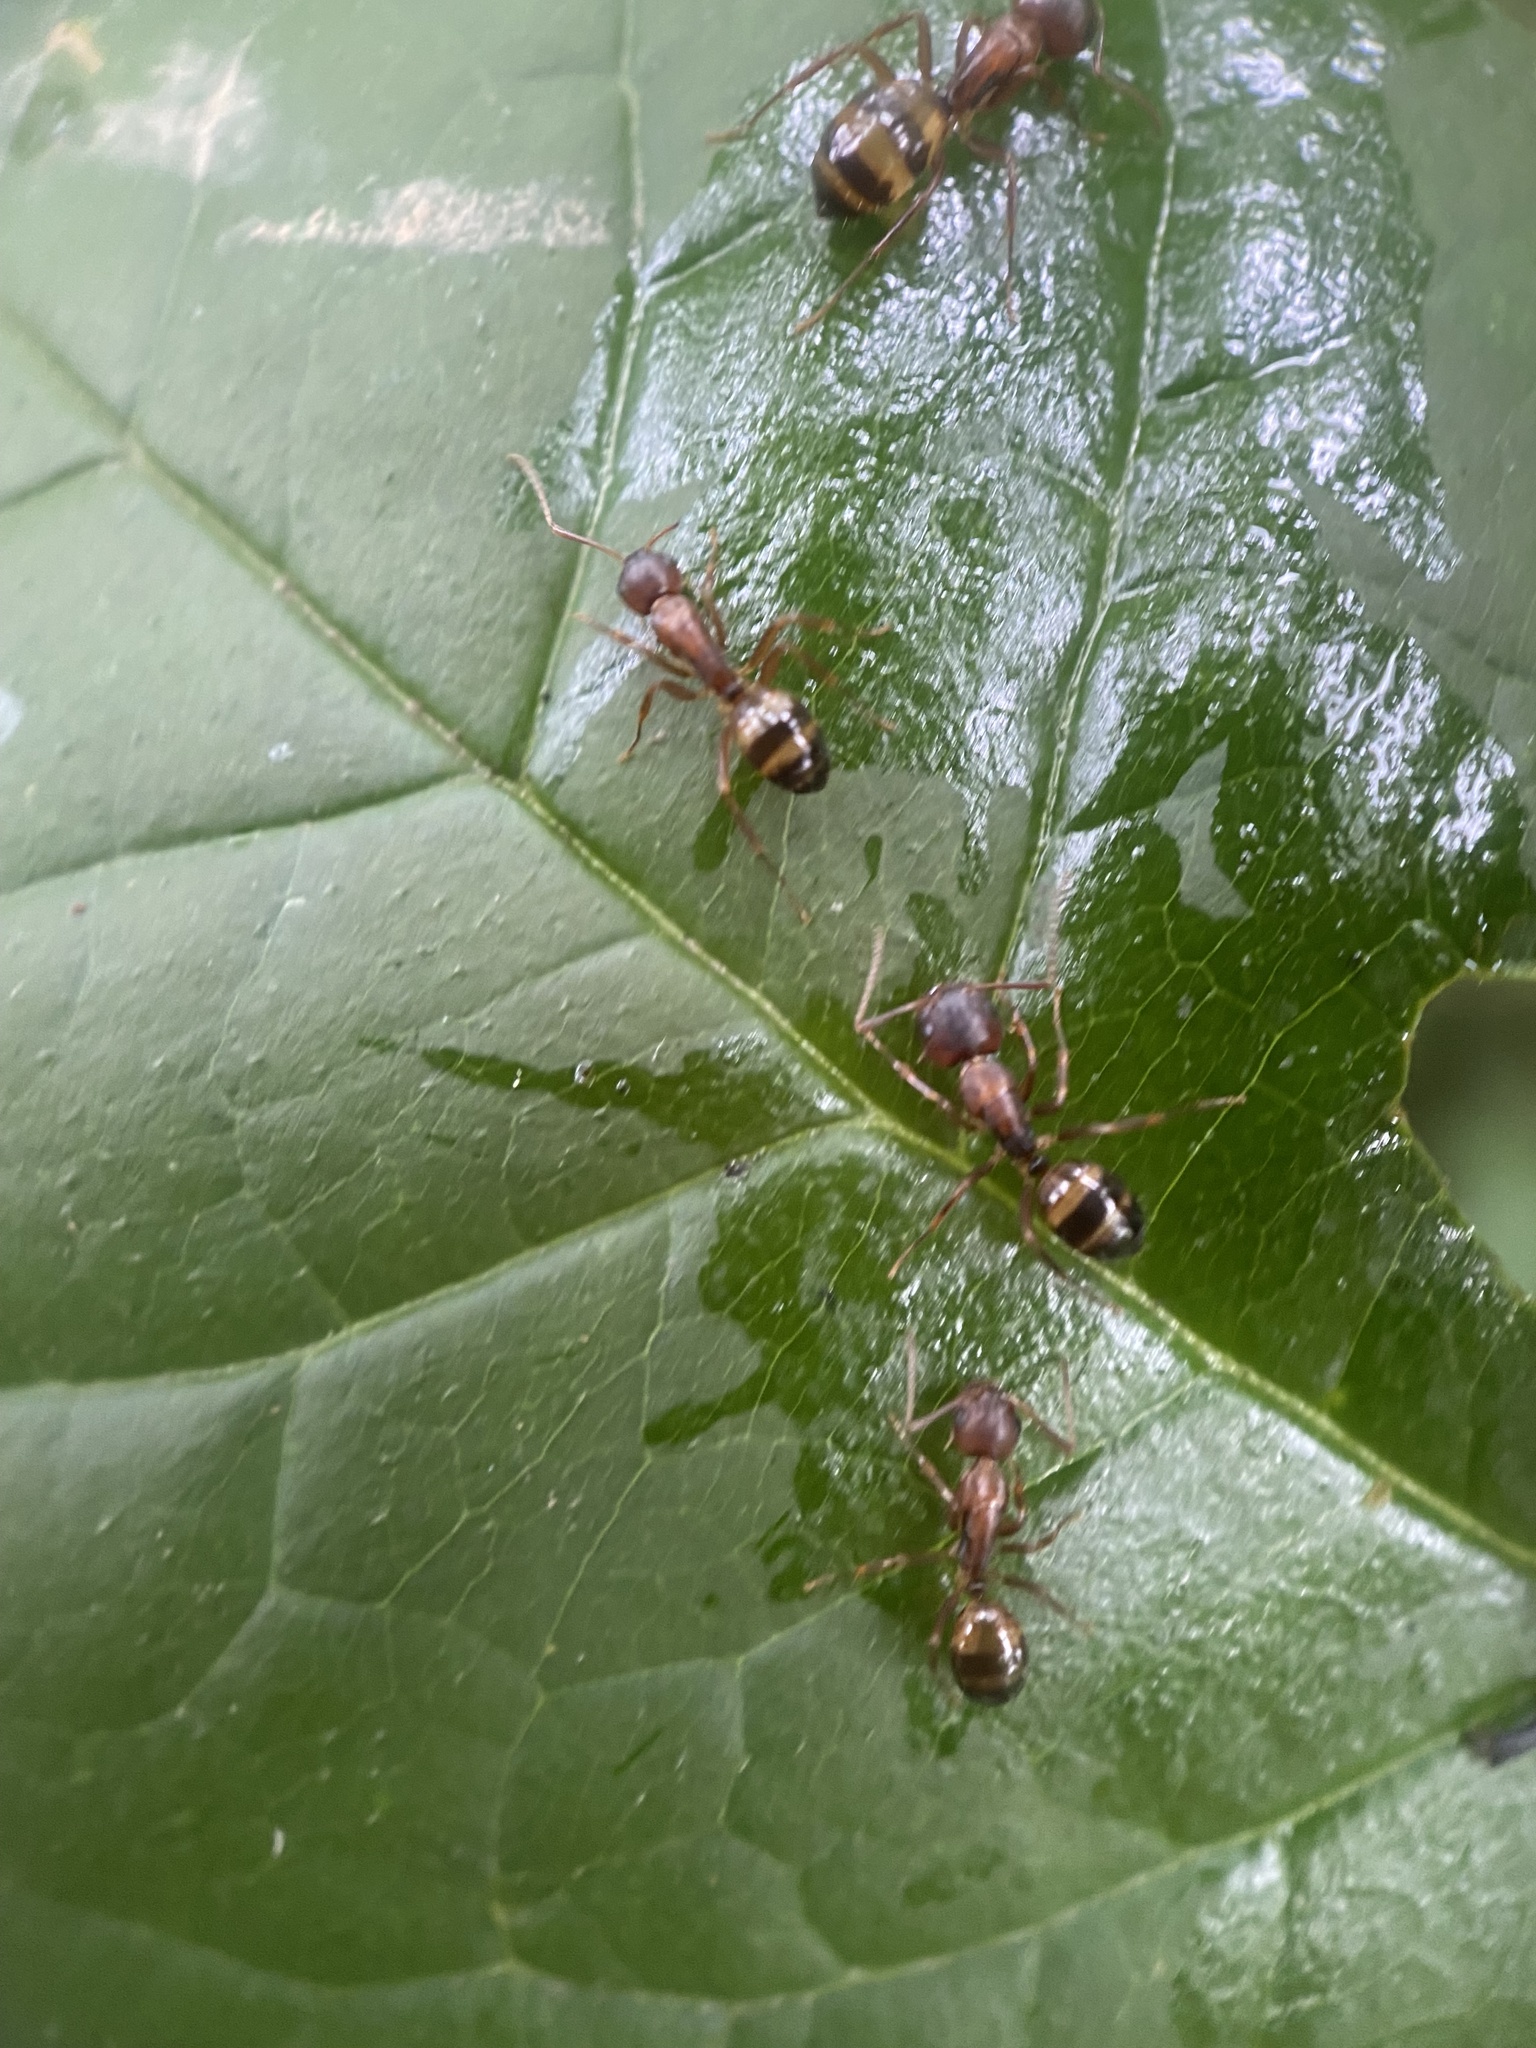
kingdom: Animalia
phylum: Arthropoda
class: Insecta
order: Hymenoptera
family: Formicidae
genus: Camponotus
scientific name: Camponotus subbarbatus
